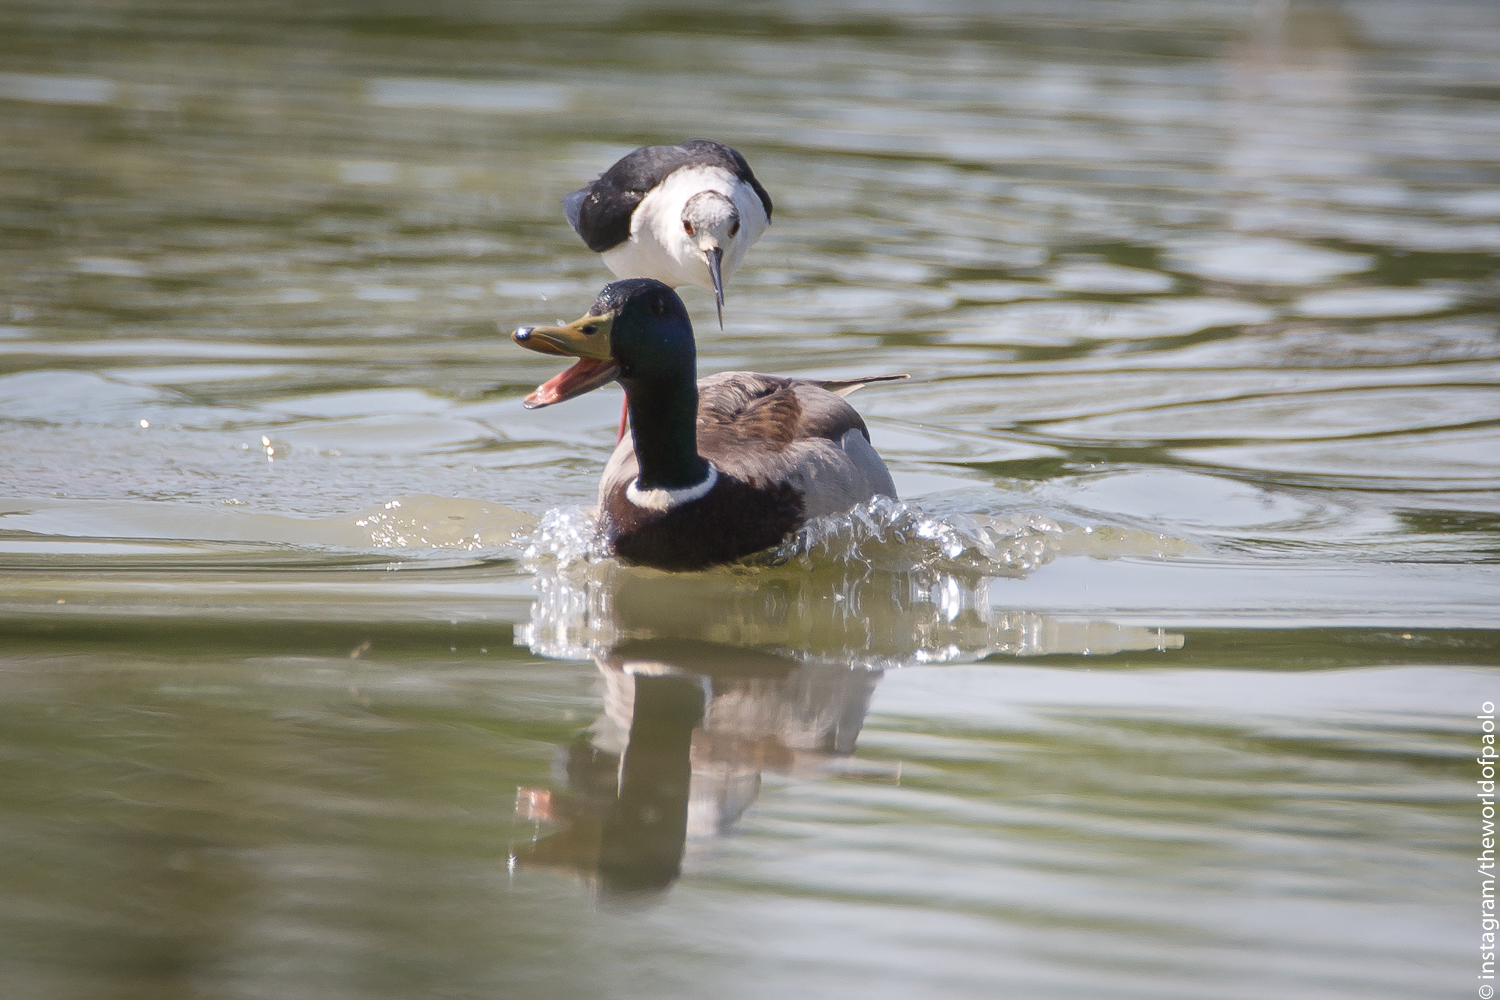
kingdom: Animalia
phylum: Chordata
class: Aves
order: Anseriformes
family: Anatidae
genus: Anas
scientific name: Anas platyrhynchos
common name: Mallard
